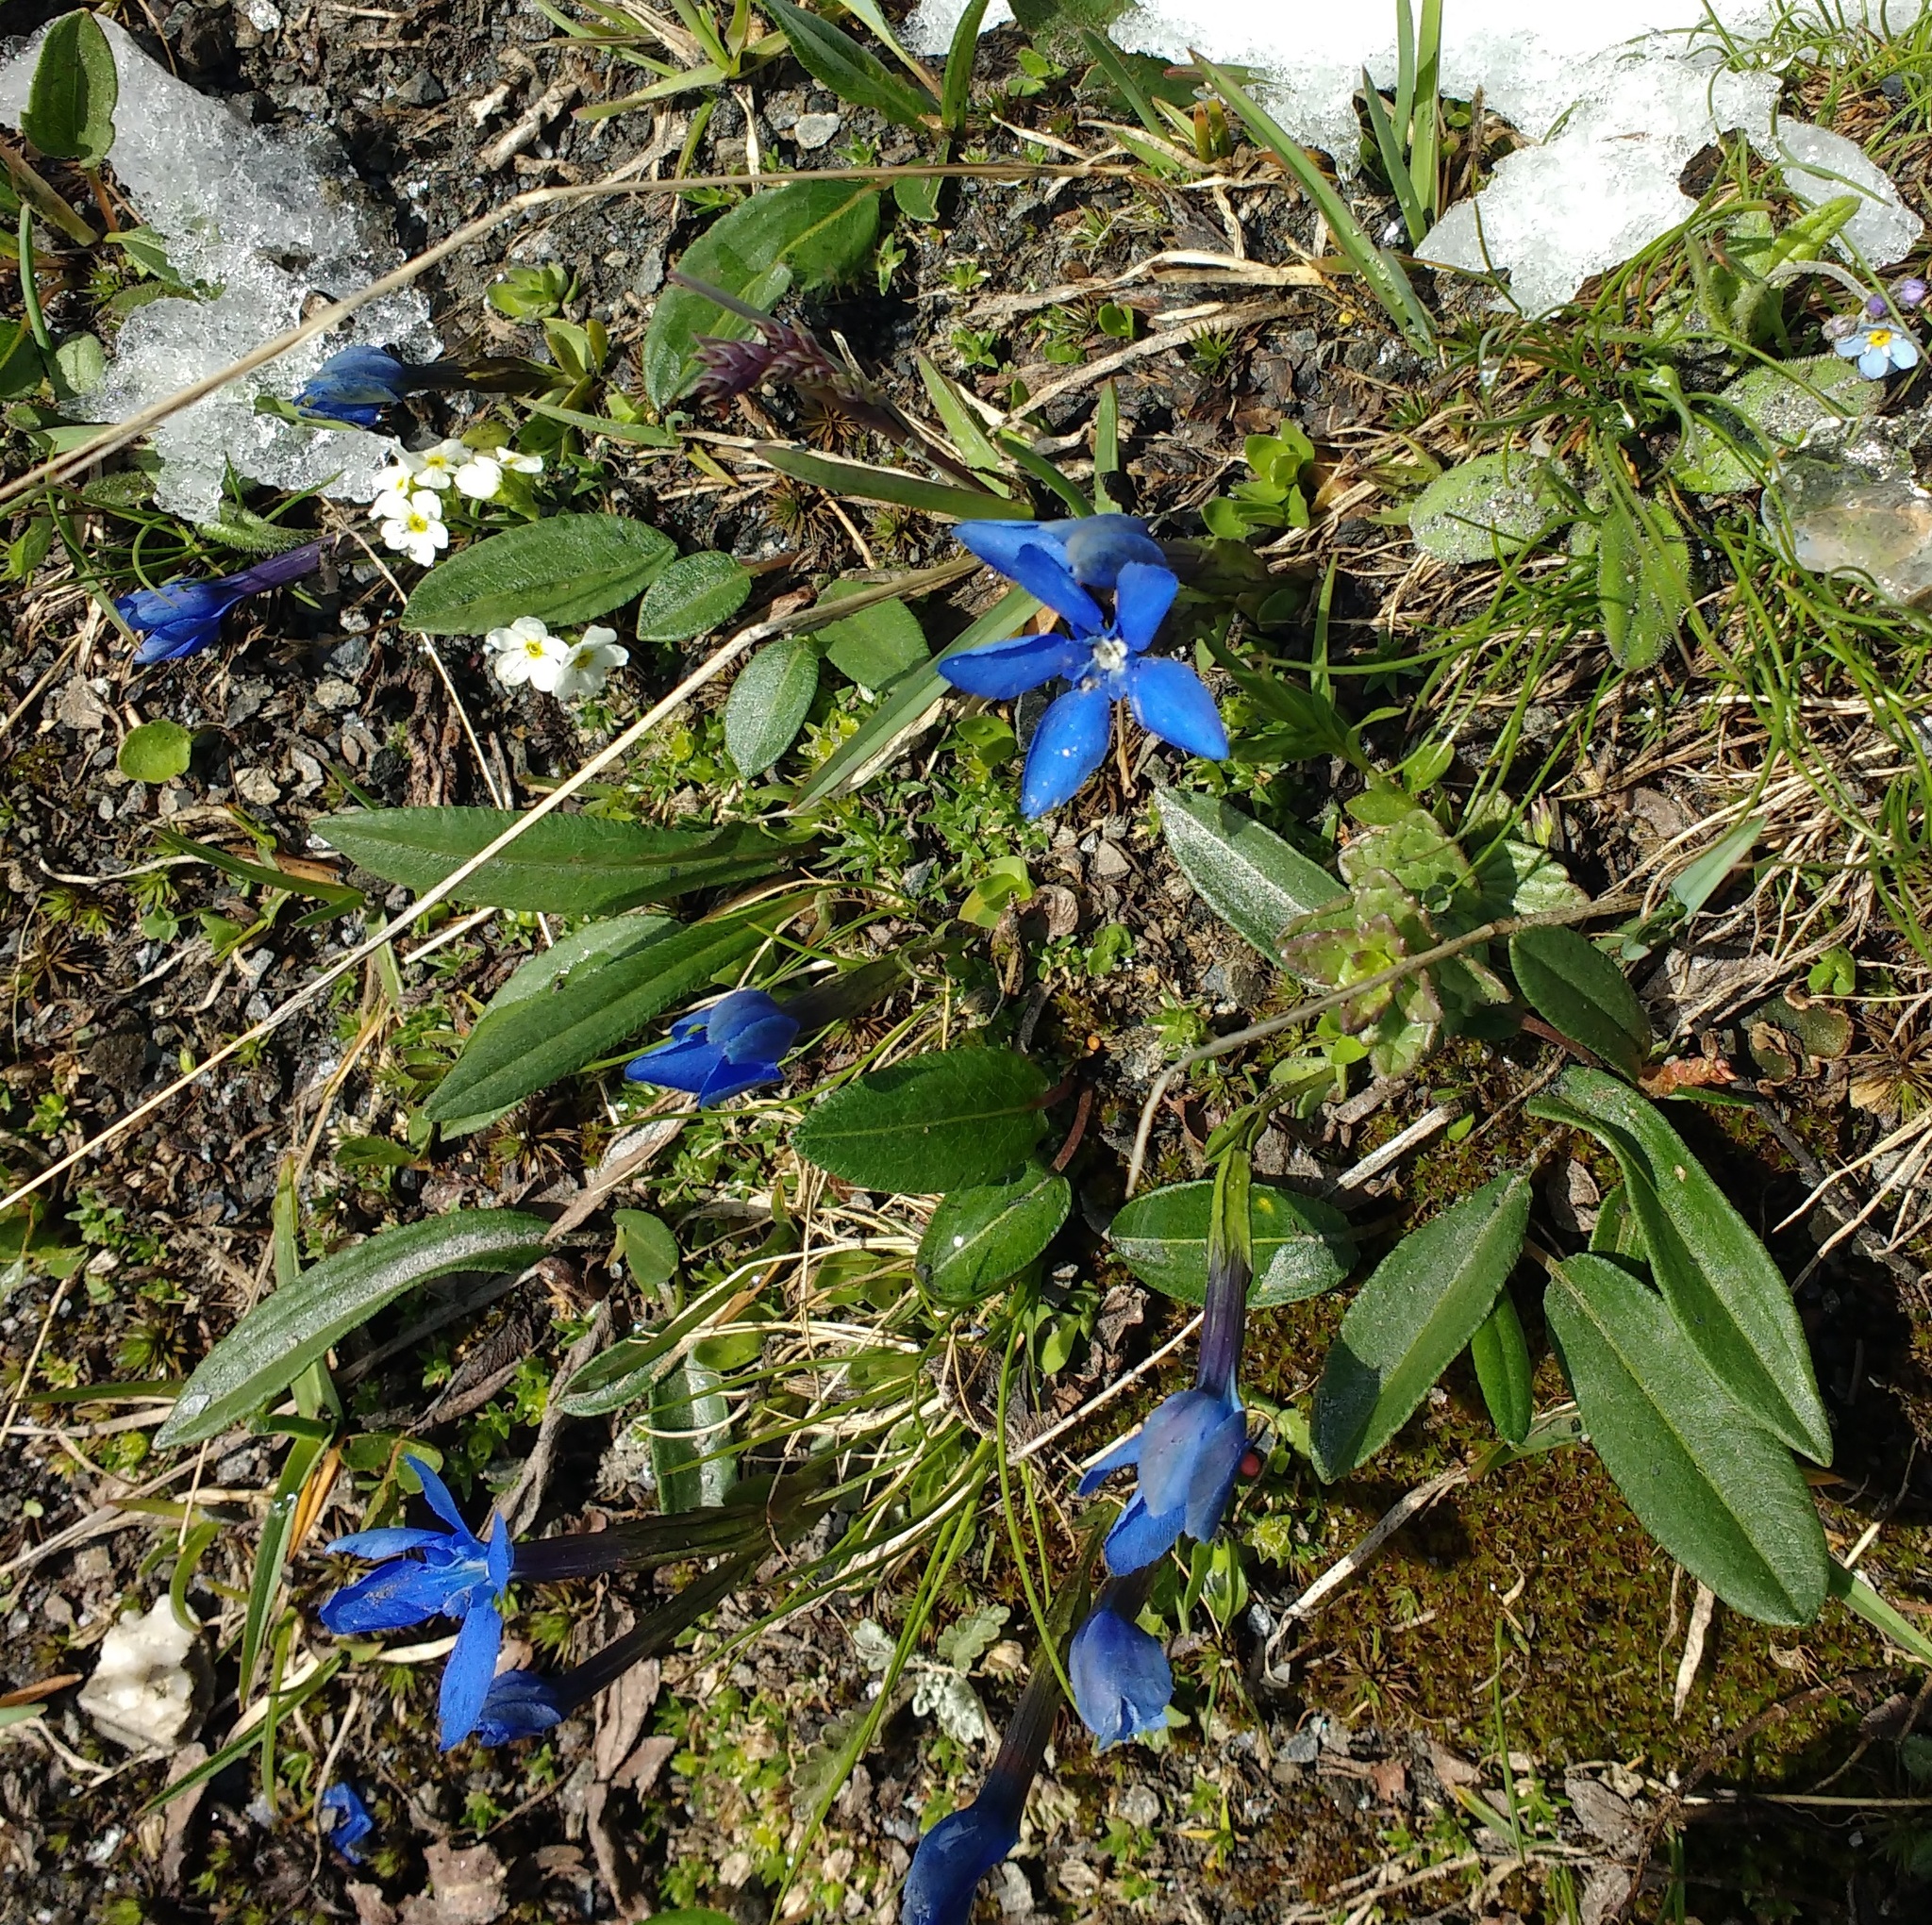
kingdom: Plantae
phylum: Tracheophyta
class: Magnoliopsida
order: Gentianales
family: Gentianaceae
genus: Gentiana
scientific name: Gentiana brachyphylla
